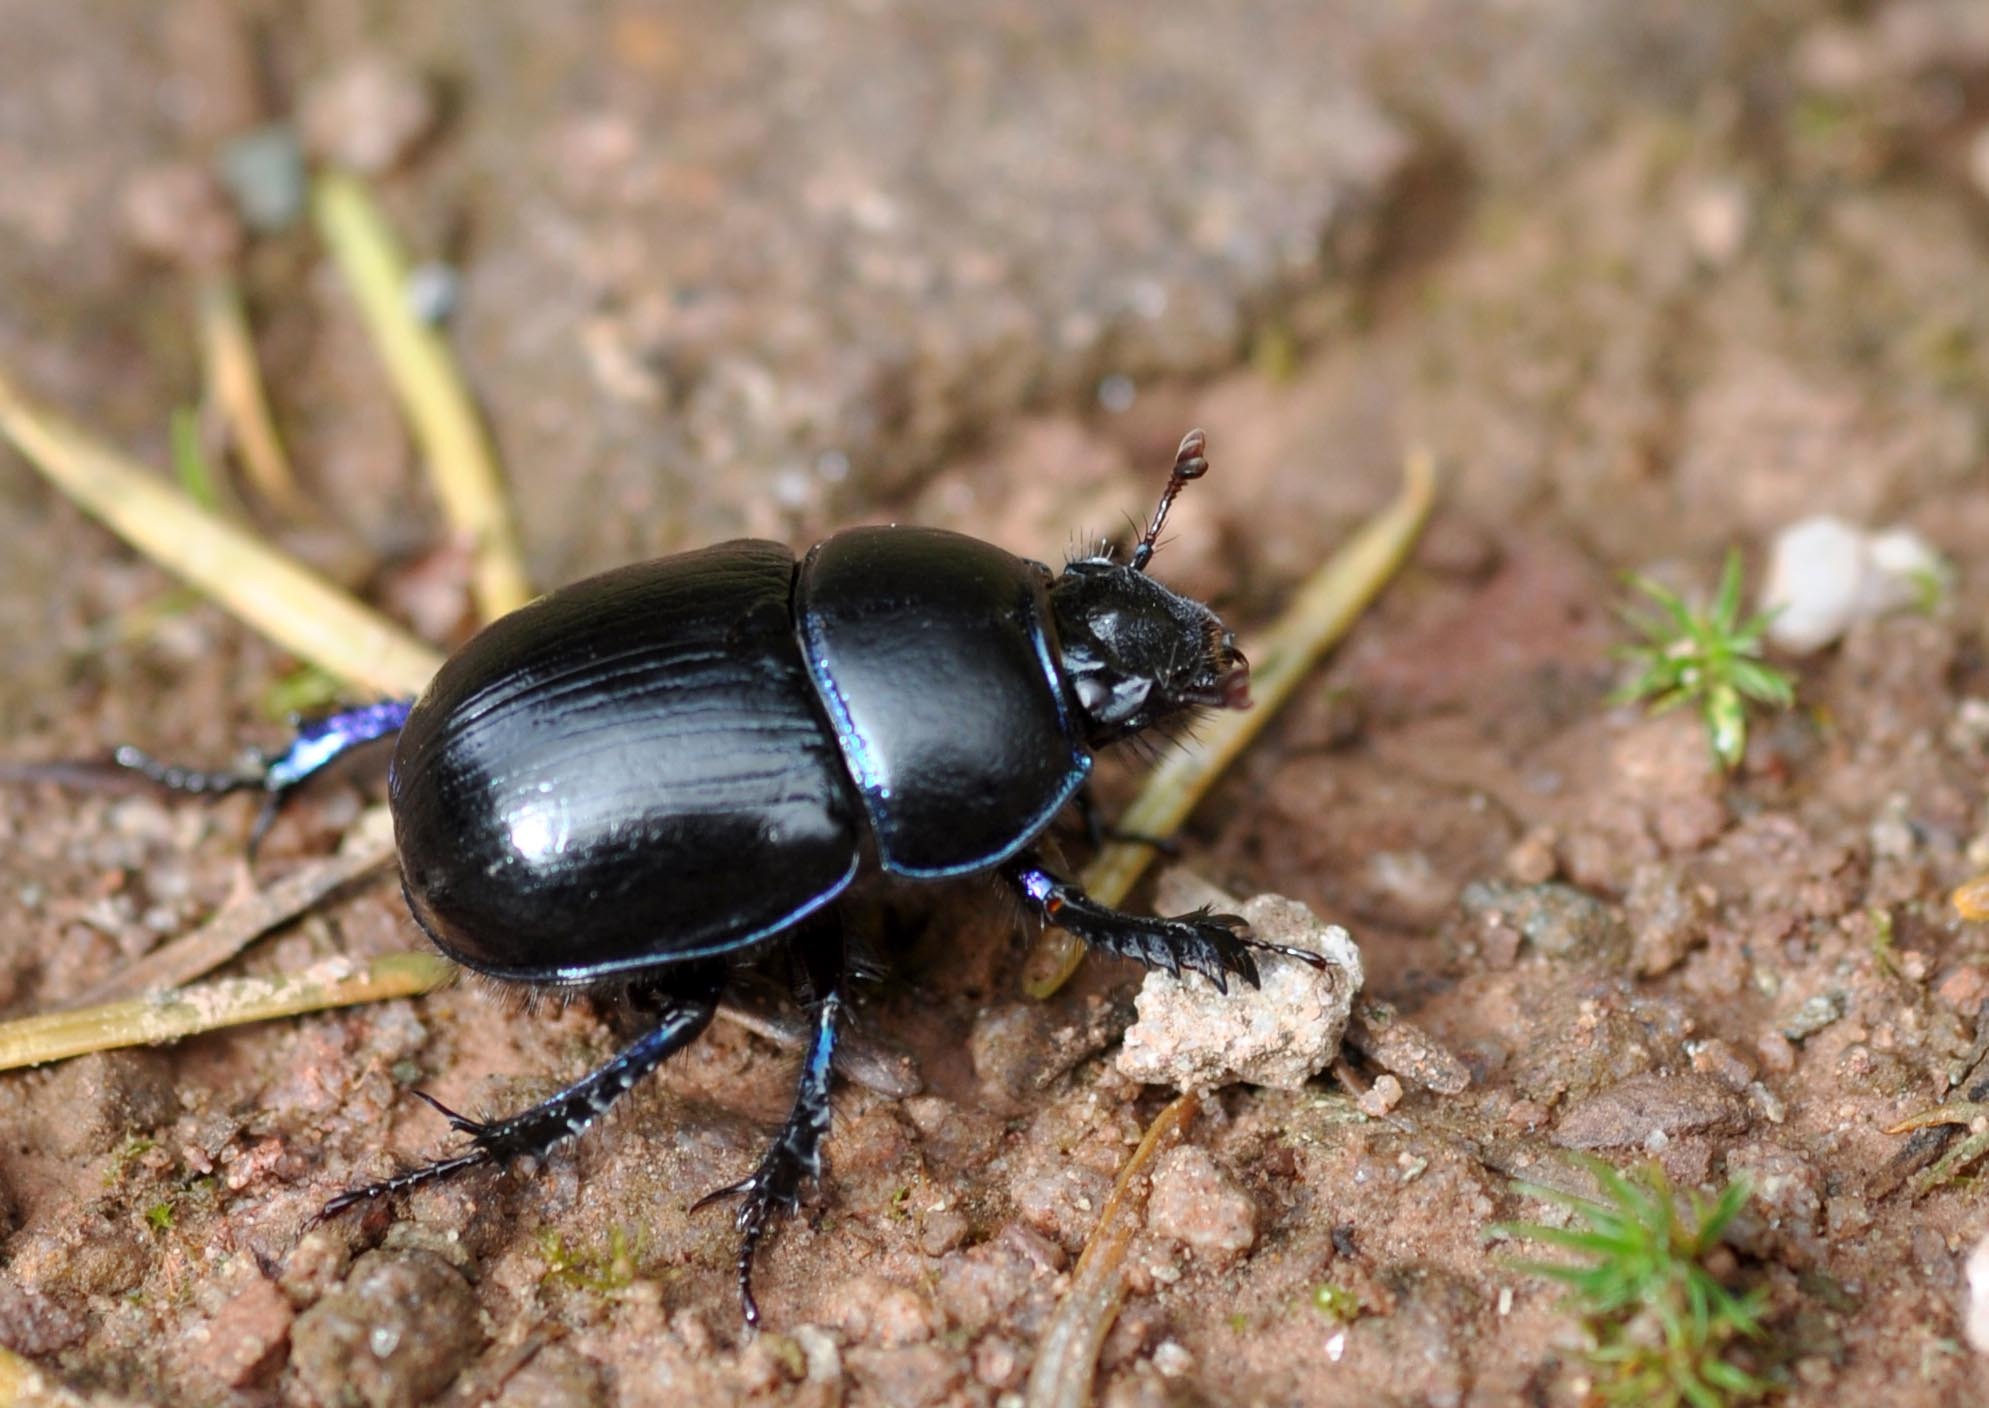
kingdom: Animalia
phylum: Arthropoda
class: Insecta
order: Coleoptera
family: Geotrupidae
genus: Anoplotrupes
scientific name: Anoplotrupes stercorosus
